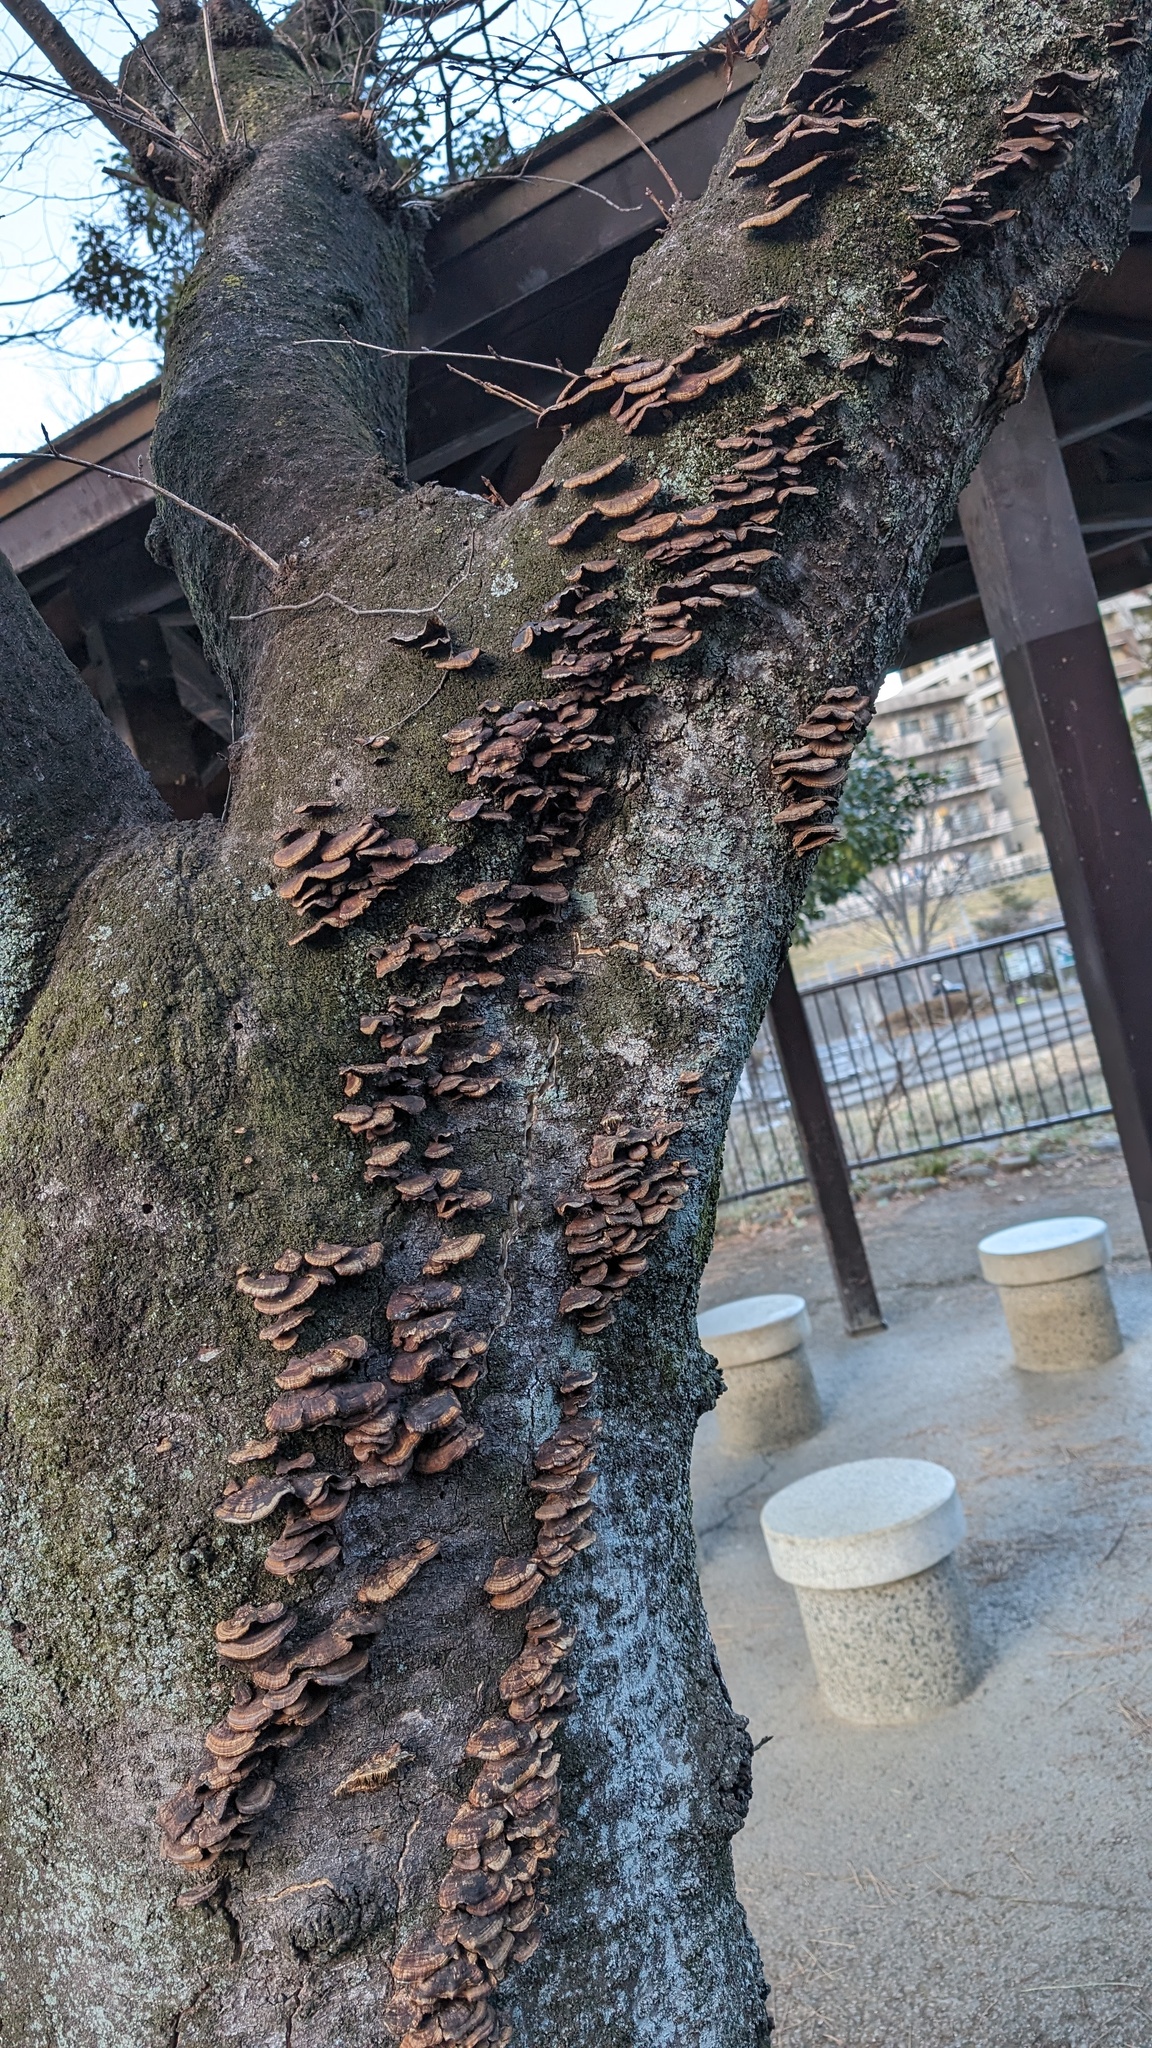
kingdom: Fungi
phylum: Basidiomycota
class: Agaricomycetes
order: Polyporales
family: Polyporaceae
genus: Daedaleopsis
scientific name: Daedaleopsis tricolor
